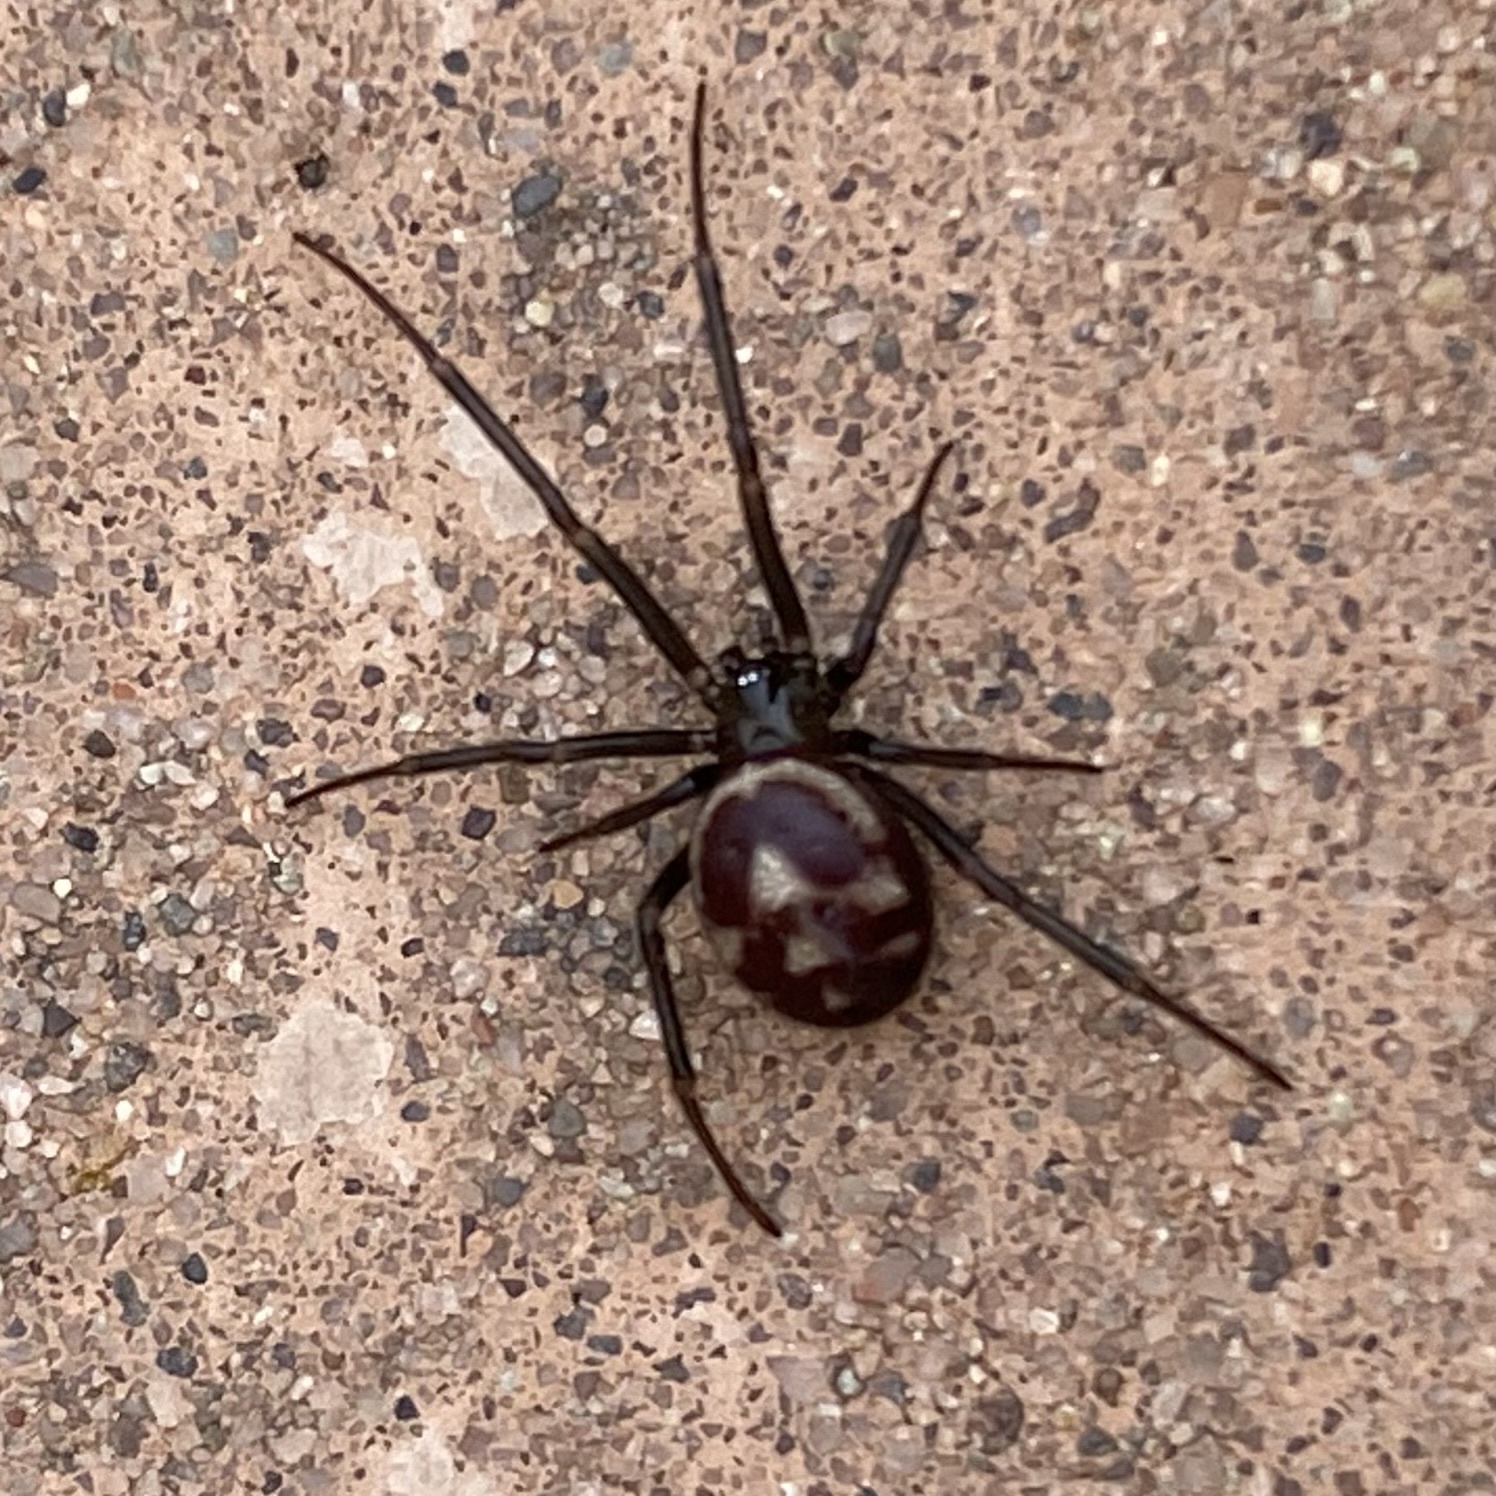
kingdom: Animalia
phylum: Arthropoda
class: Arachnida
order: Araneae
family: Theridiidae
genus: Steatoda
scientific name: Steatoda grossa
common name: False black widow
